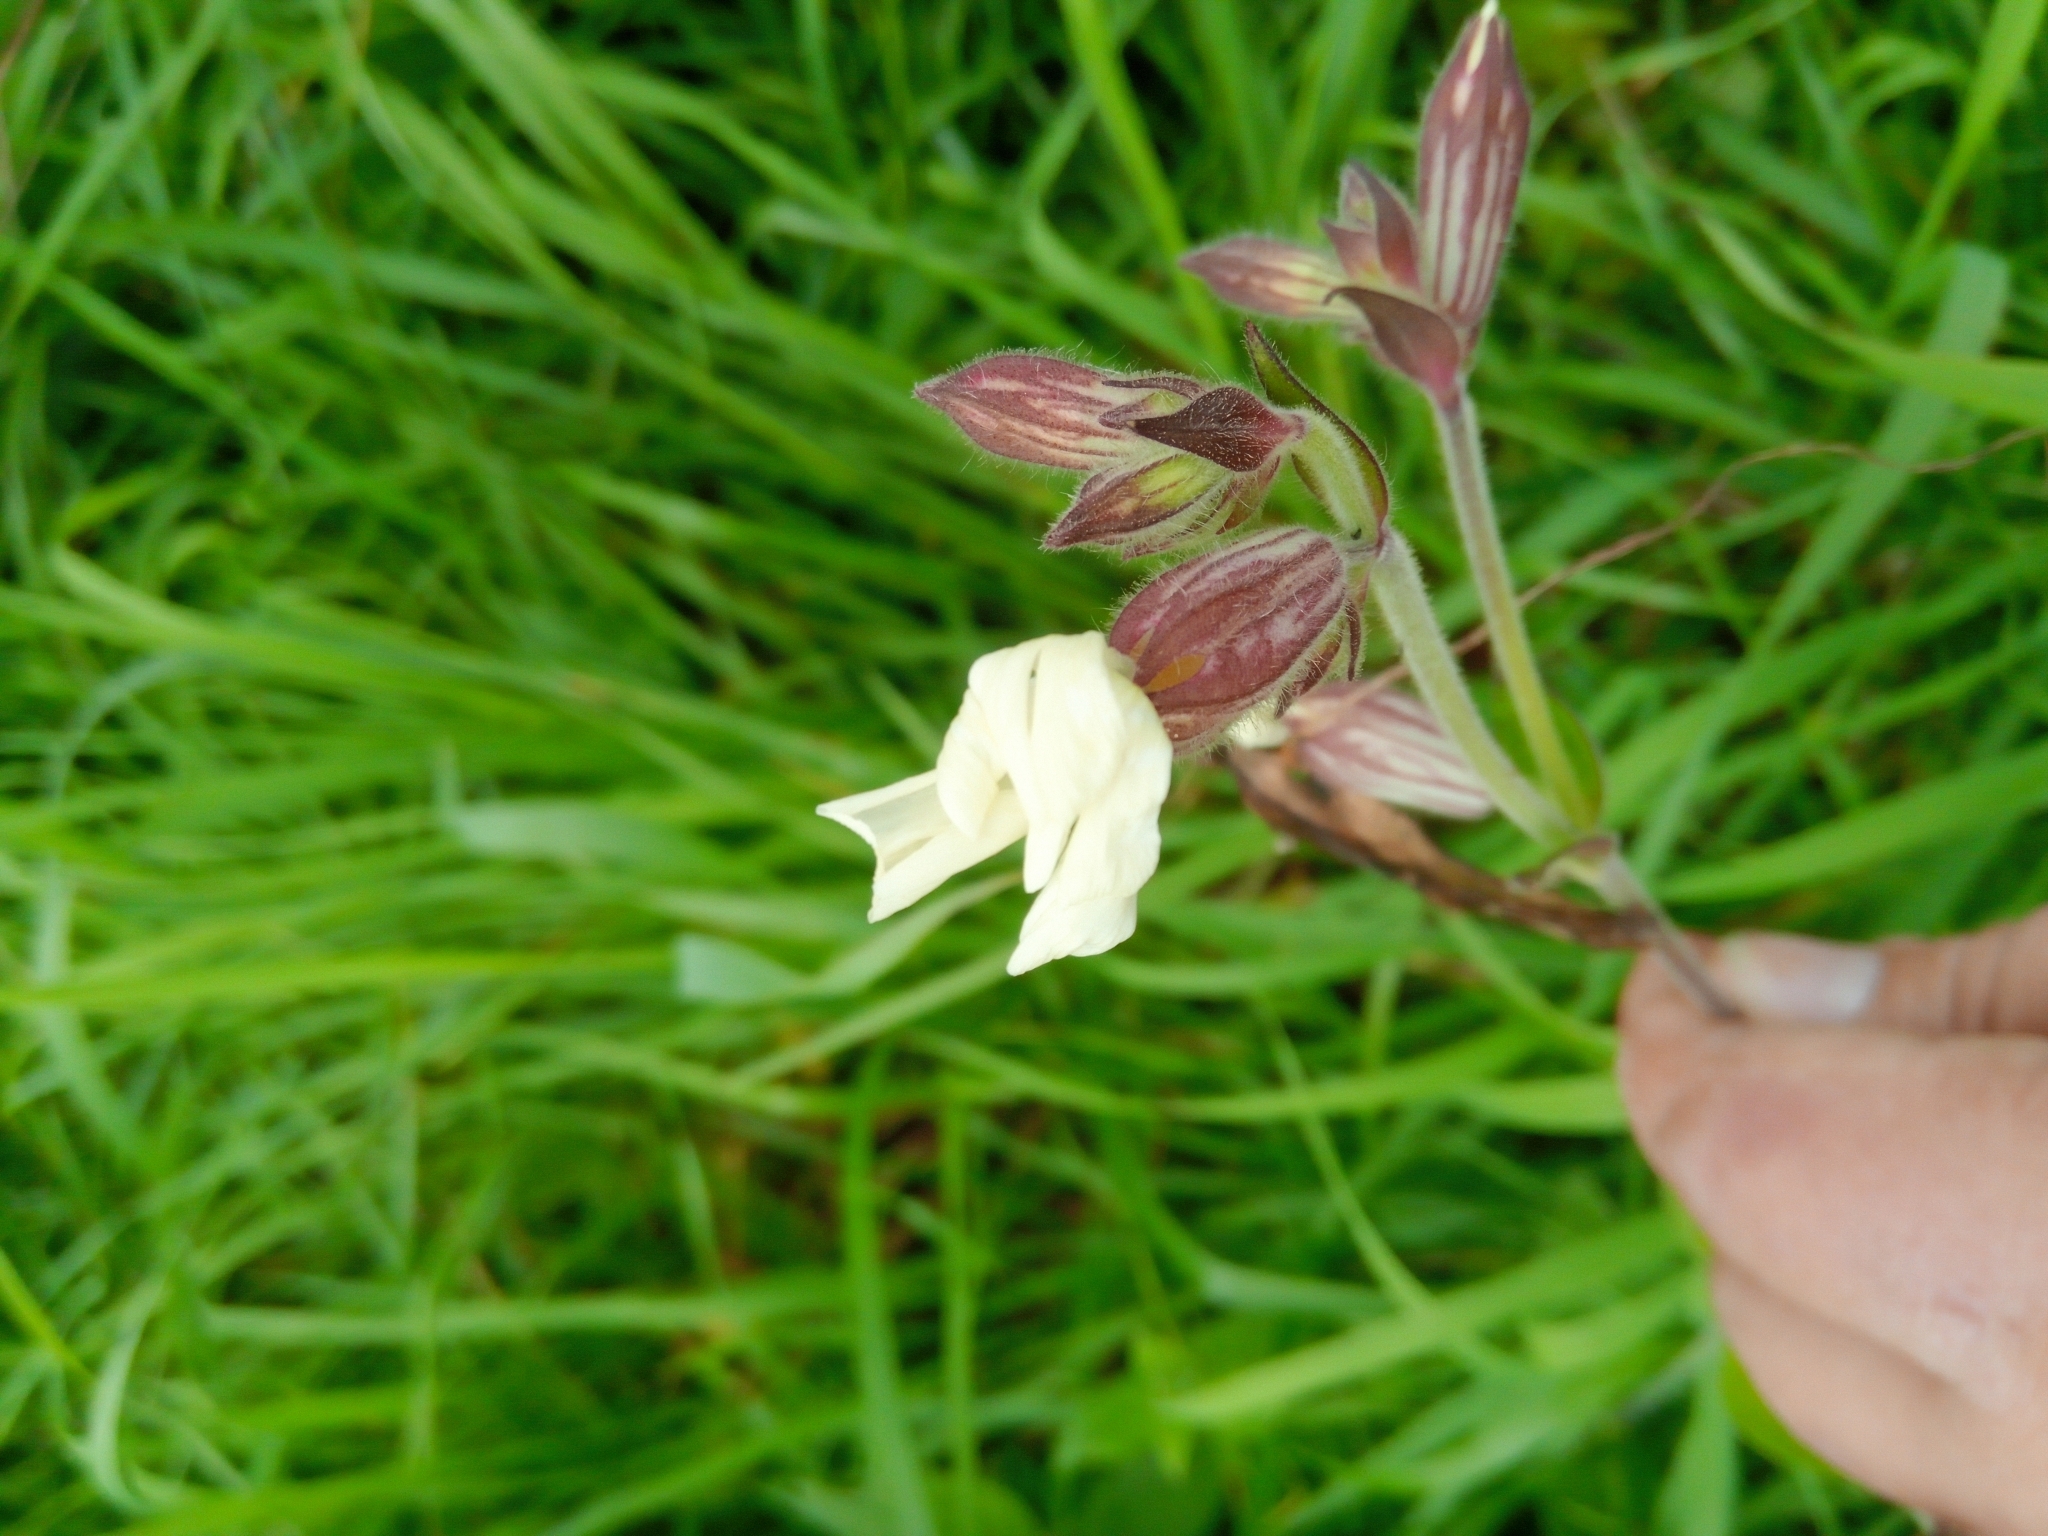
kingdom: Plantae
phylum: Tracheophyta
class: Magnoliopsida
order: Caryophyllales
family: Caryophyllaceae
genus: Silene
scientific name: Silene latifolia
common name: White campion
